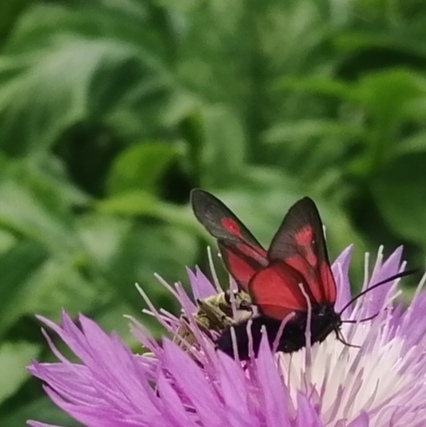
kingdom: Animalia
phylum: Arthropoda
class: Insecta
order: Lepidoptera
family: Zygaenidae
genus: Zygaena
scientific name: Zygaena osterodensis
